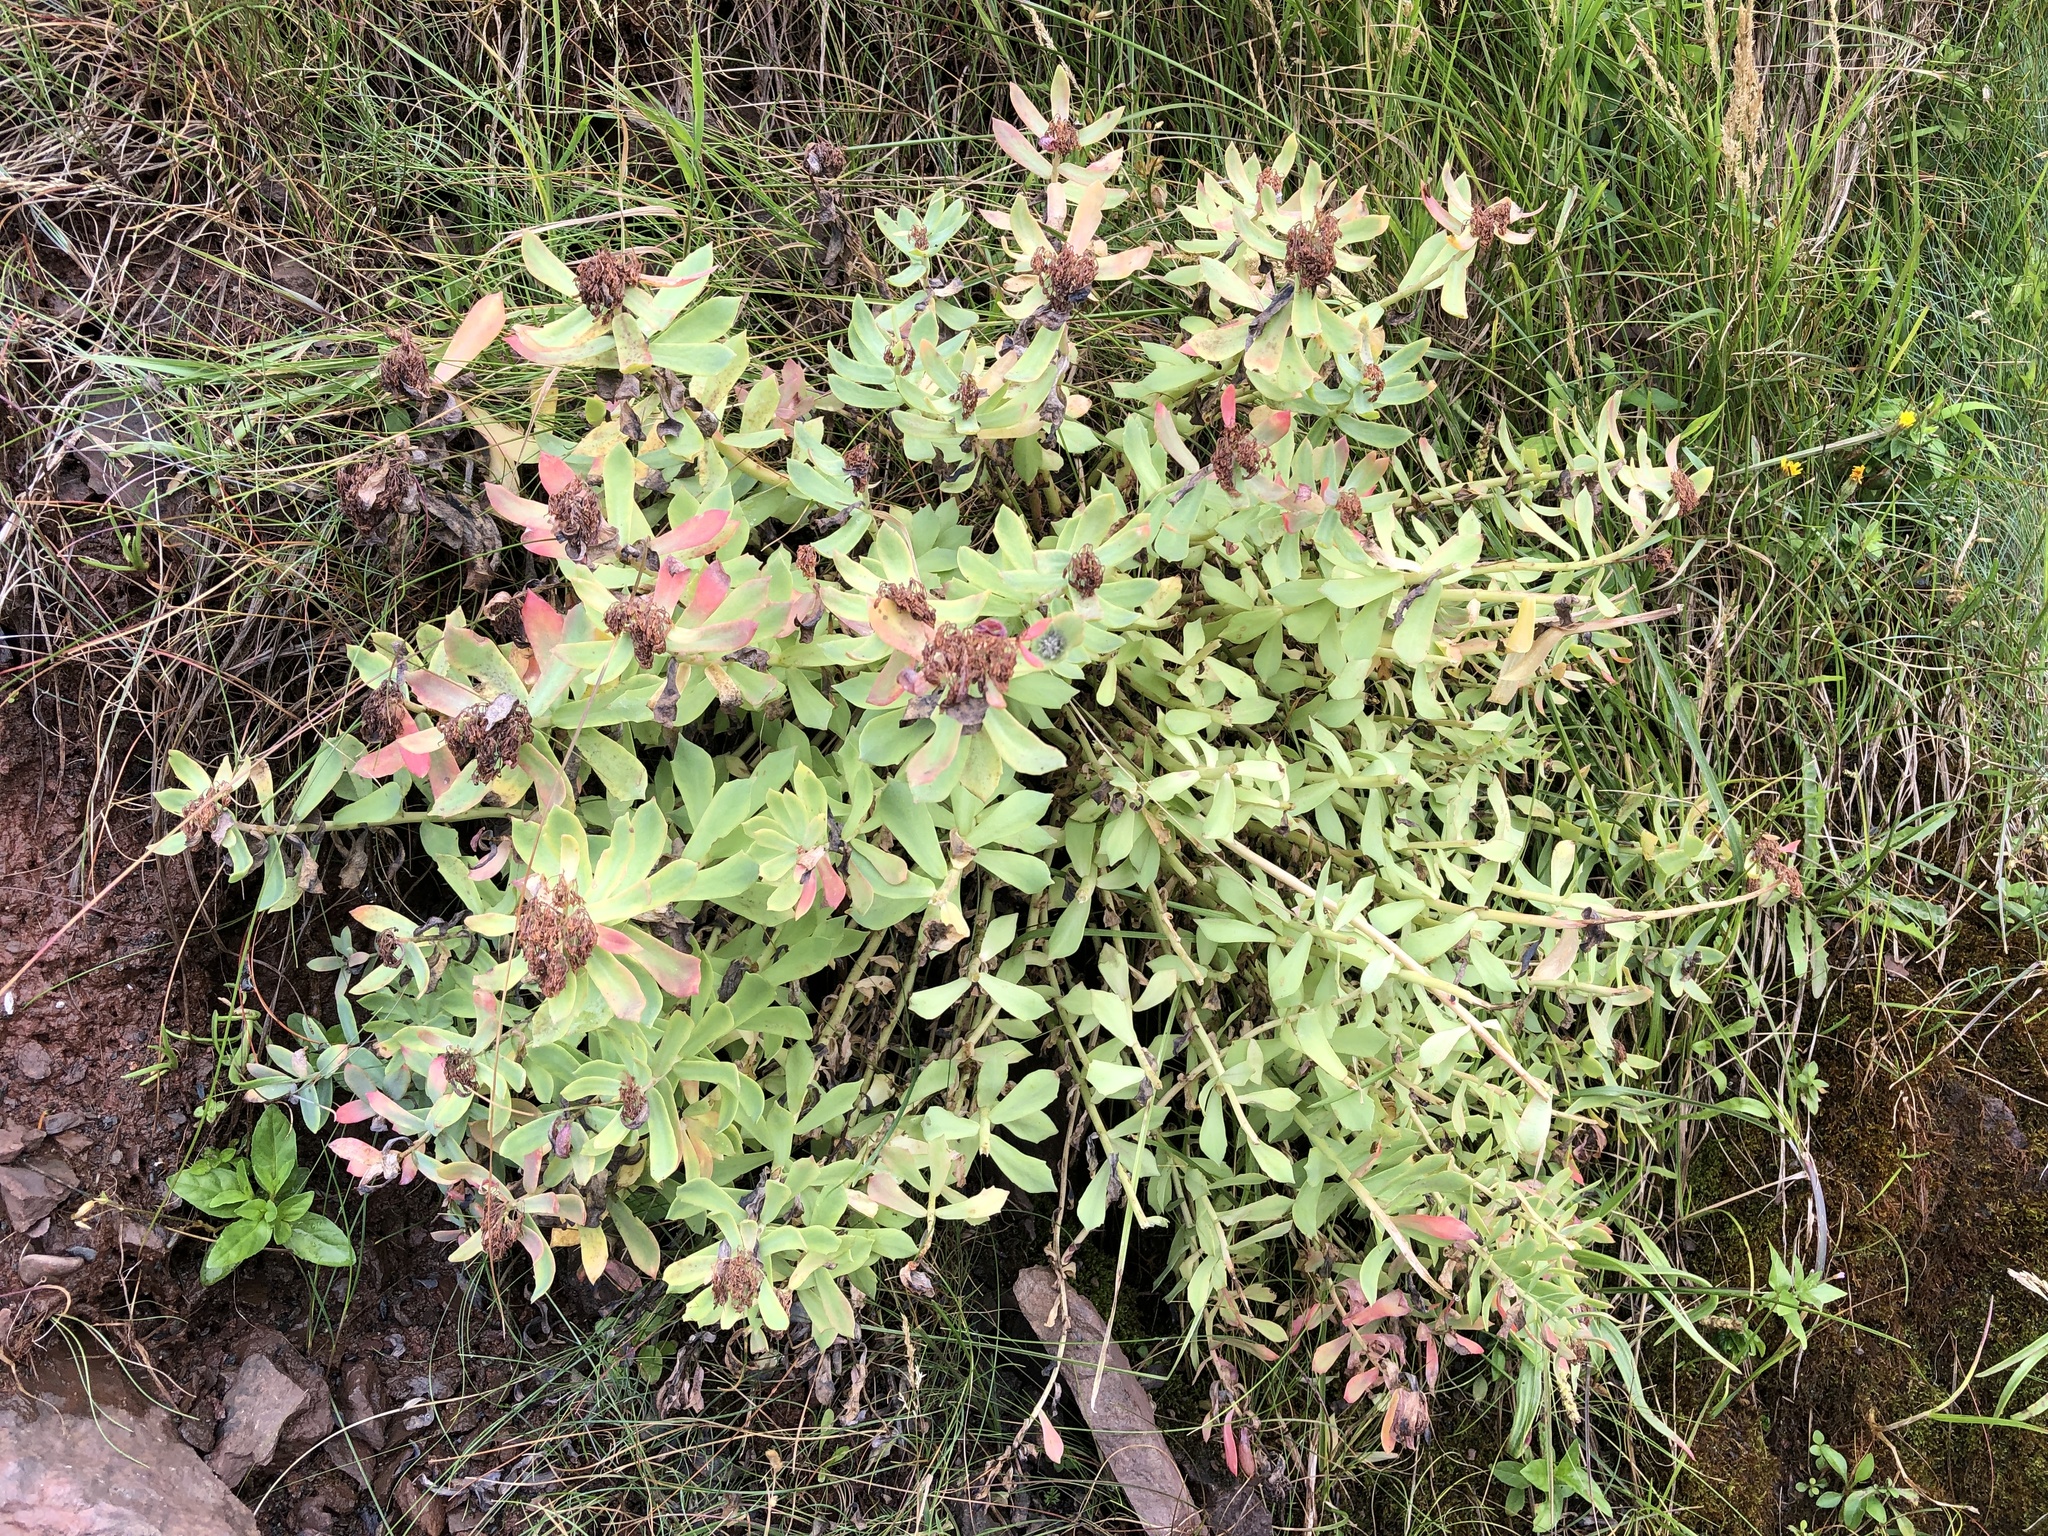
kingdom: Plantae
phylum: Tracheophyta
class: Magnoliopsida
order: Saxifragales
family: Crassulaceae
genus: Rhodiola
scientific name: Rhodiola rosea
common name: Roseroot
